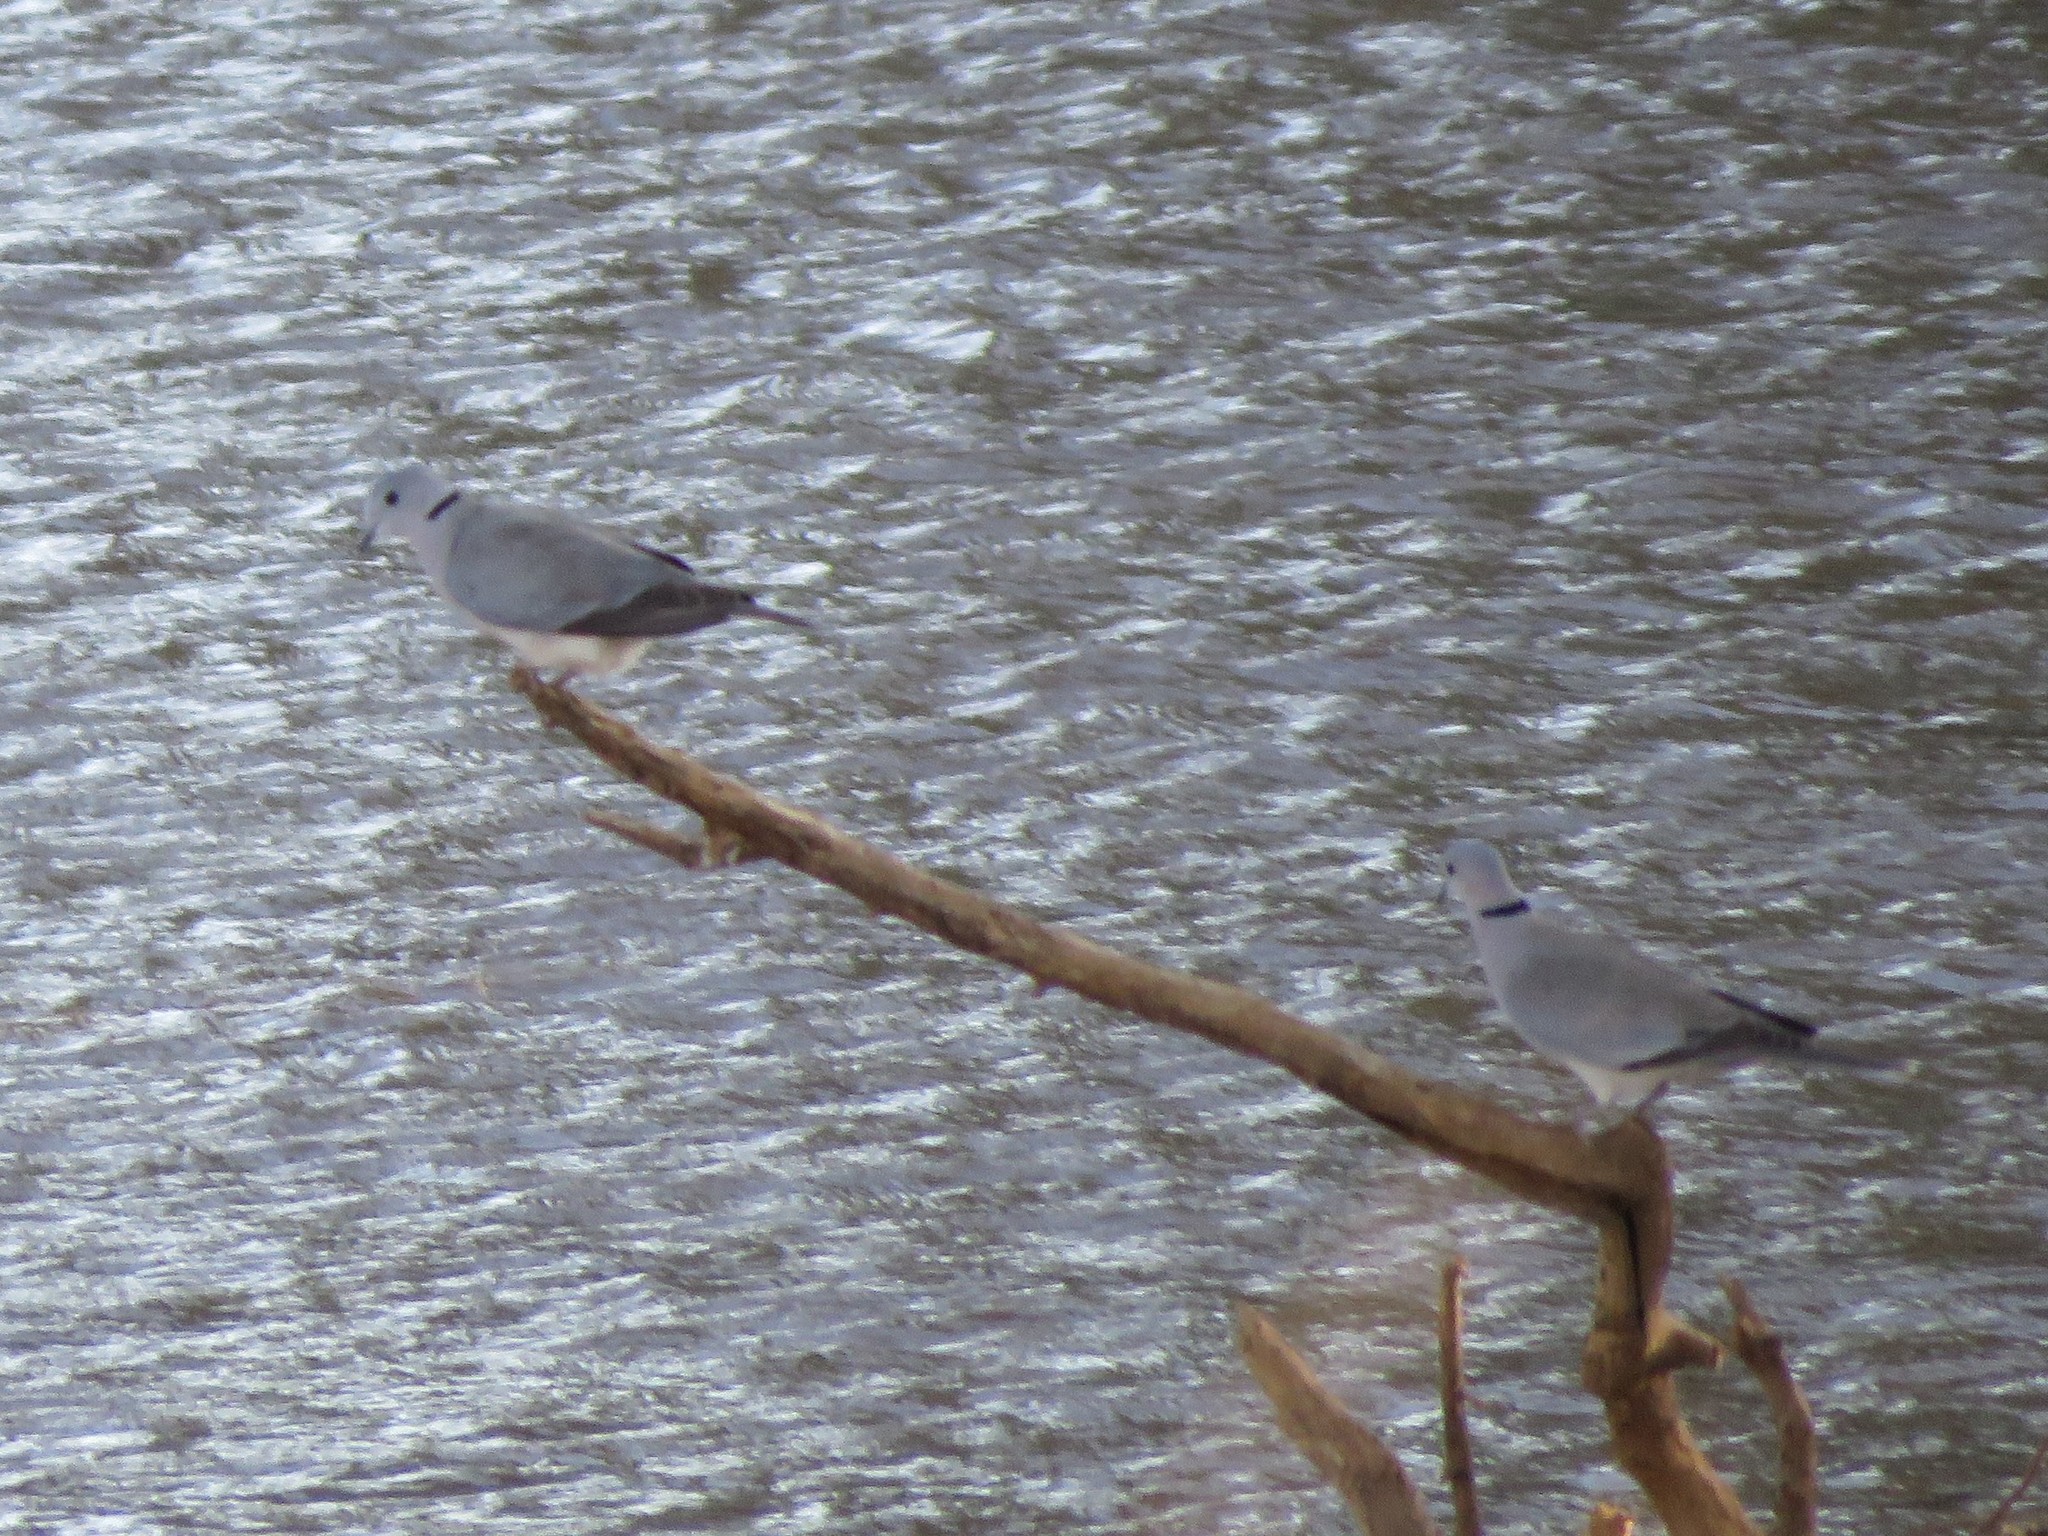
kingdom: Animalia
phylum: Chordata
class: Aves
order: Columbiformes
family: Columbidae
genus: Streptopelia
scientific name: Streptopelia capicola
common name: Ring-necked dove
